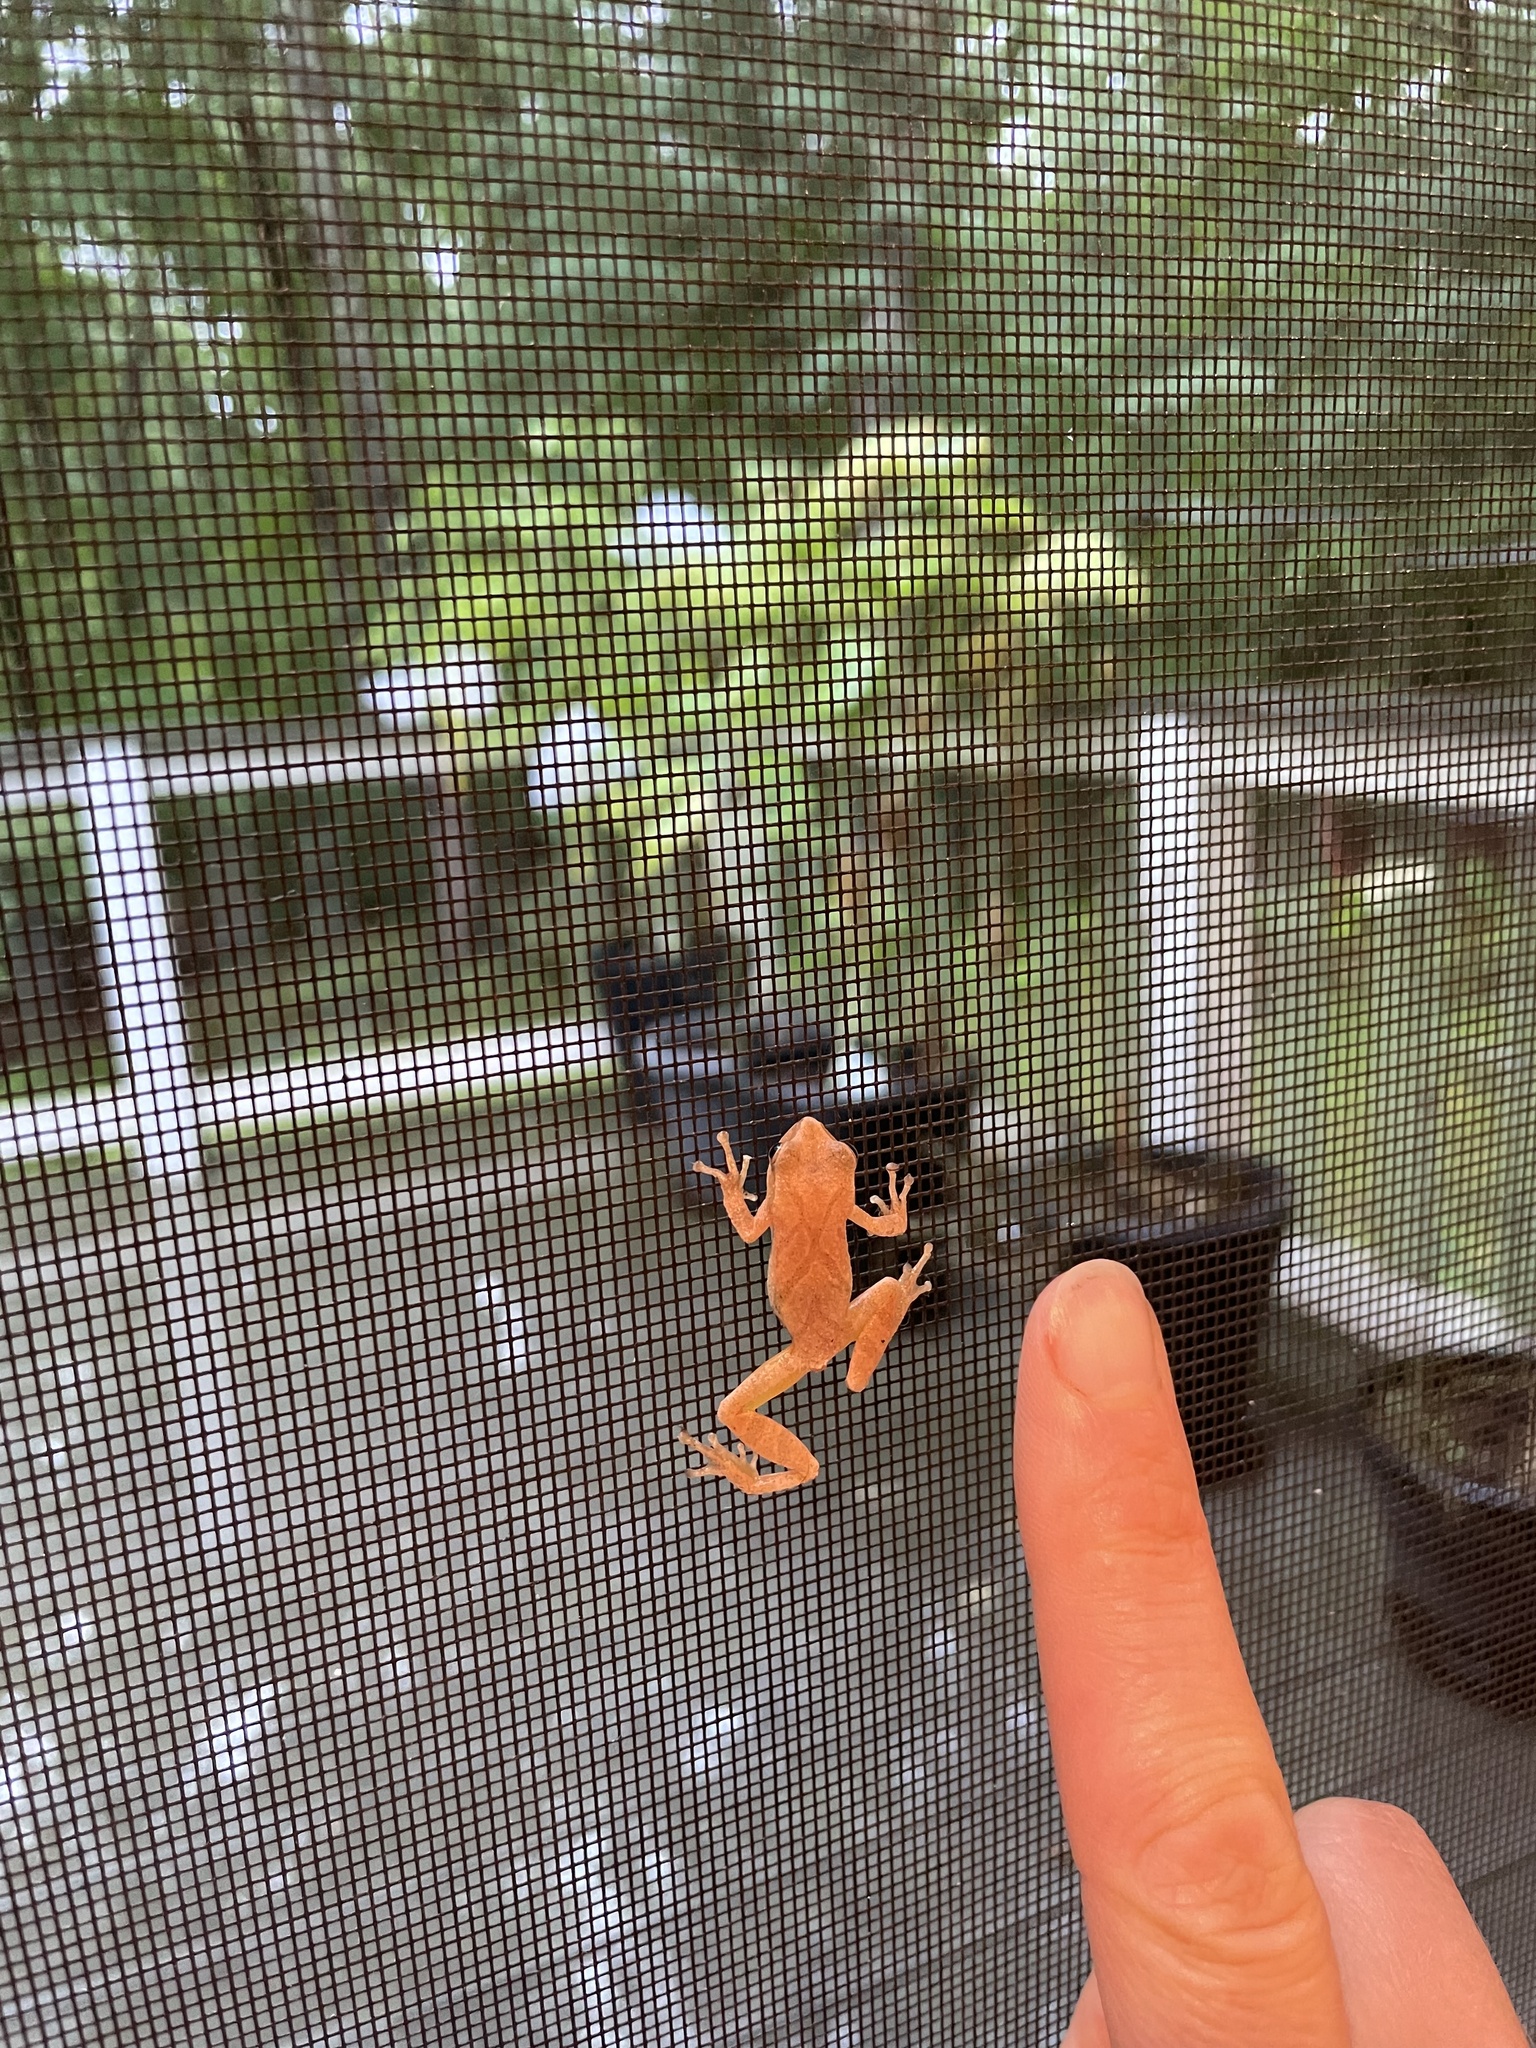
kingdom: Animalia
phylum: Chordata
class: Amphibia
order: Anura
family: Hylidae
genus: Pseudacris
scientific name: Pseudacris crucifer
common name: Spring peeper
